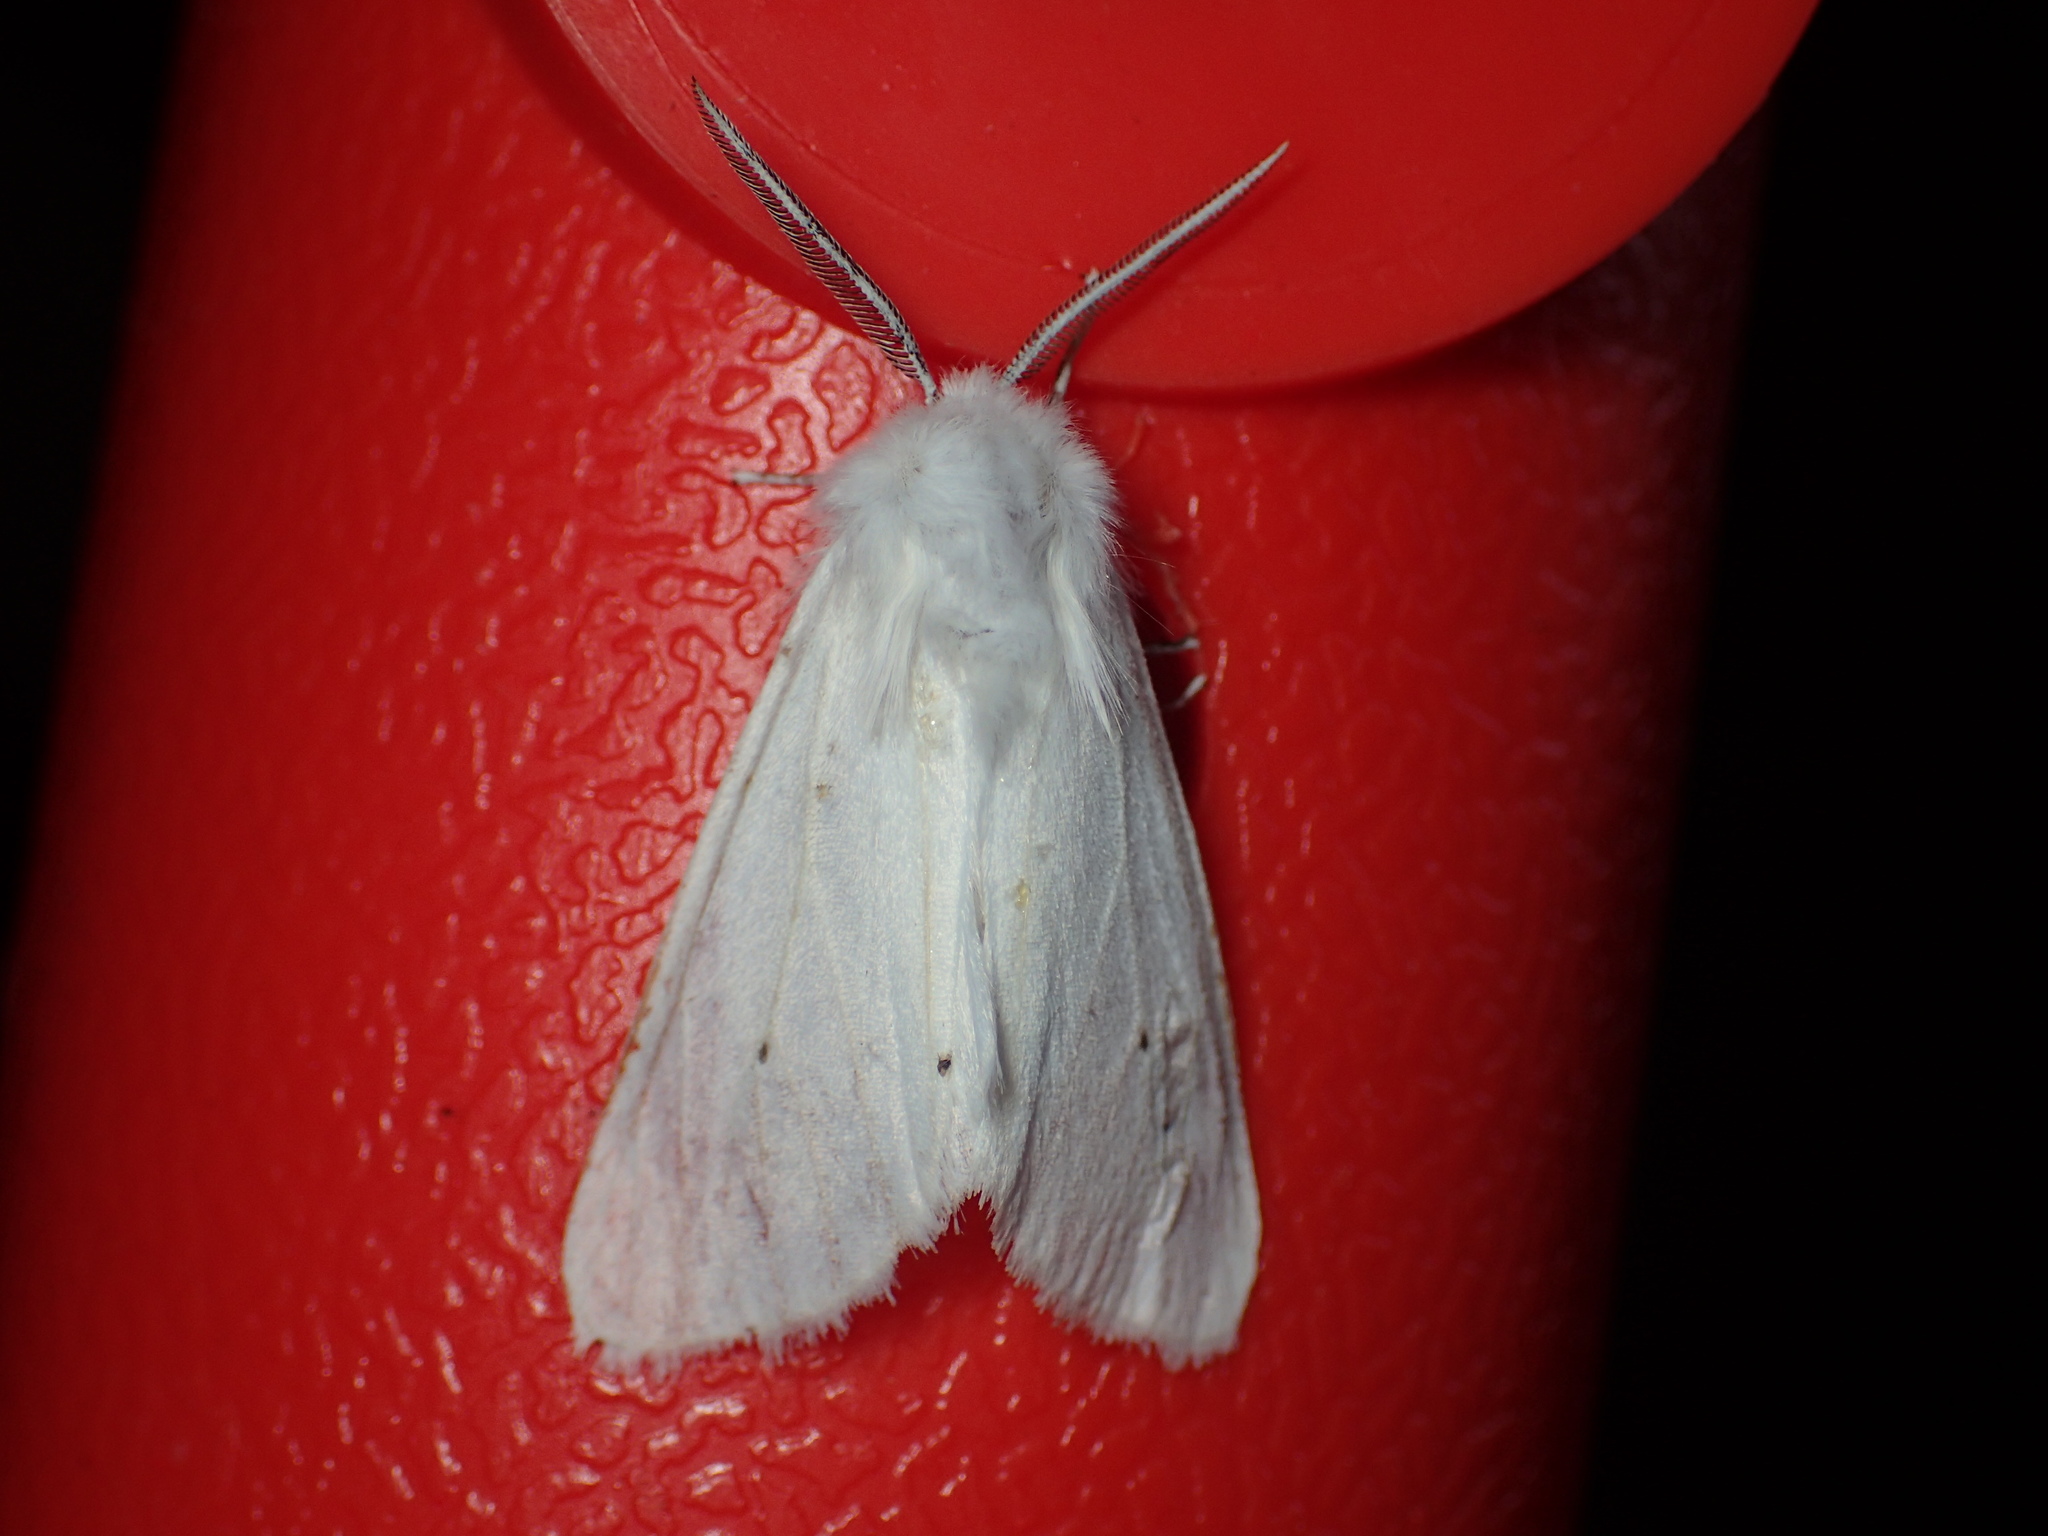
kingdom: Animalia
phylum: Arthropoda
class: Insecta
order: Lepidoptera
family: Erebidae
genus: Spilosoma
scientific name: Spilosoma virginica
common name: Virginia tiger moth
